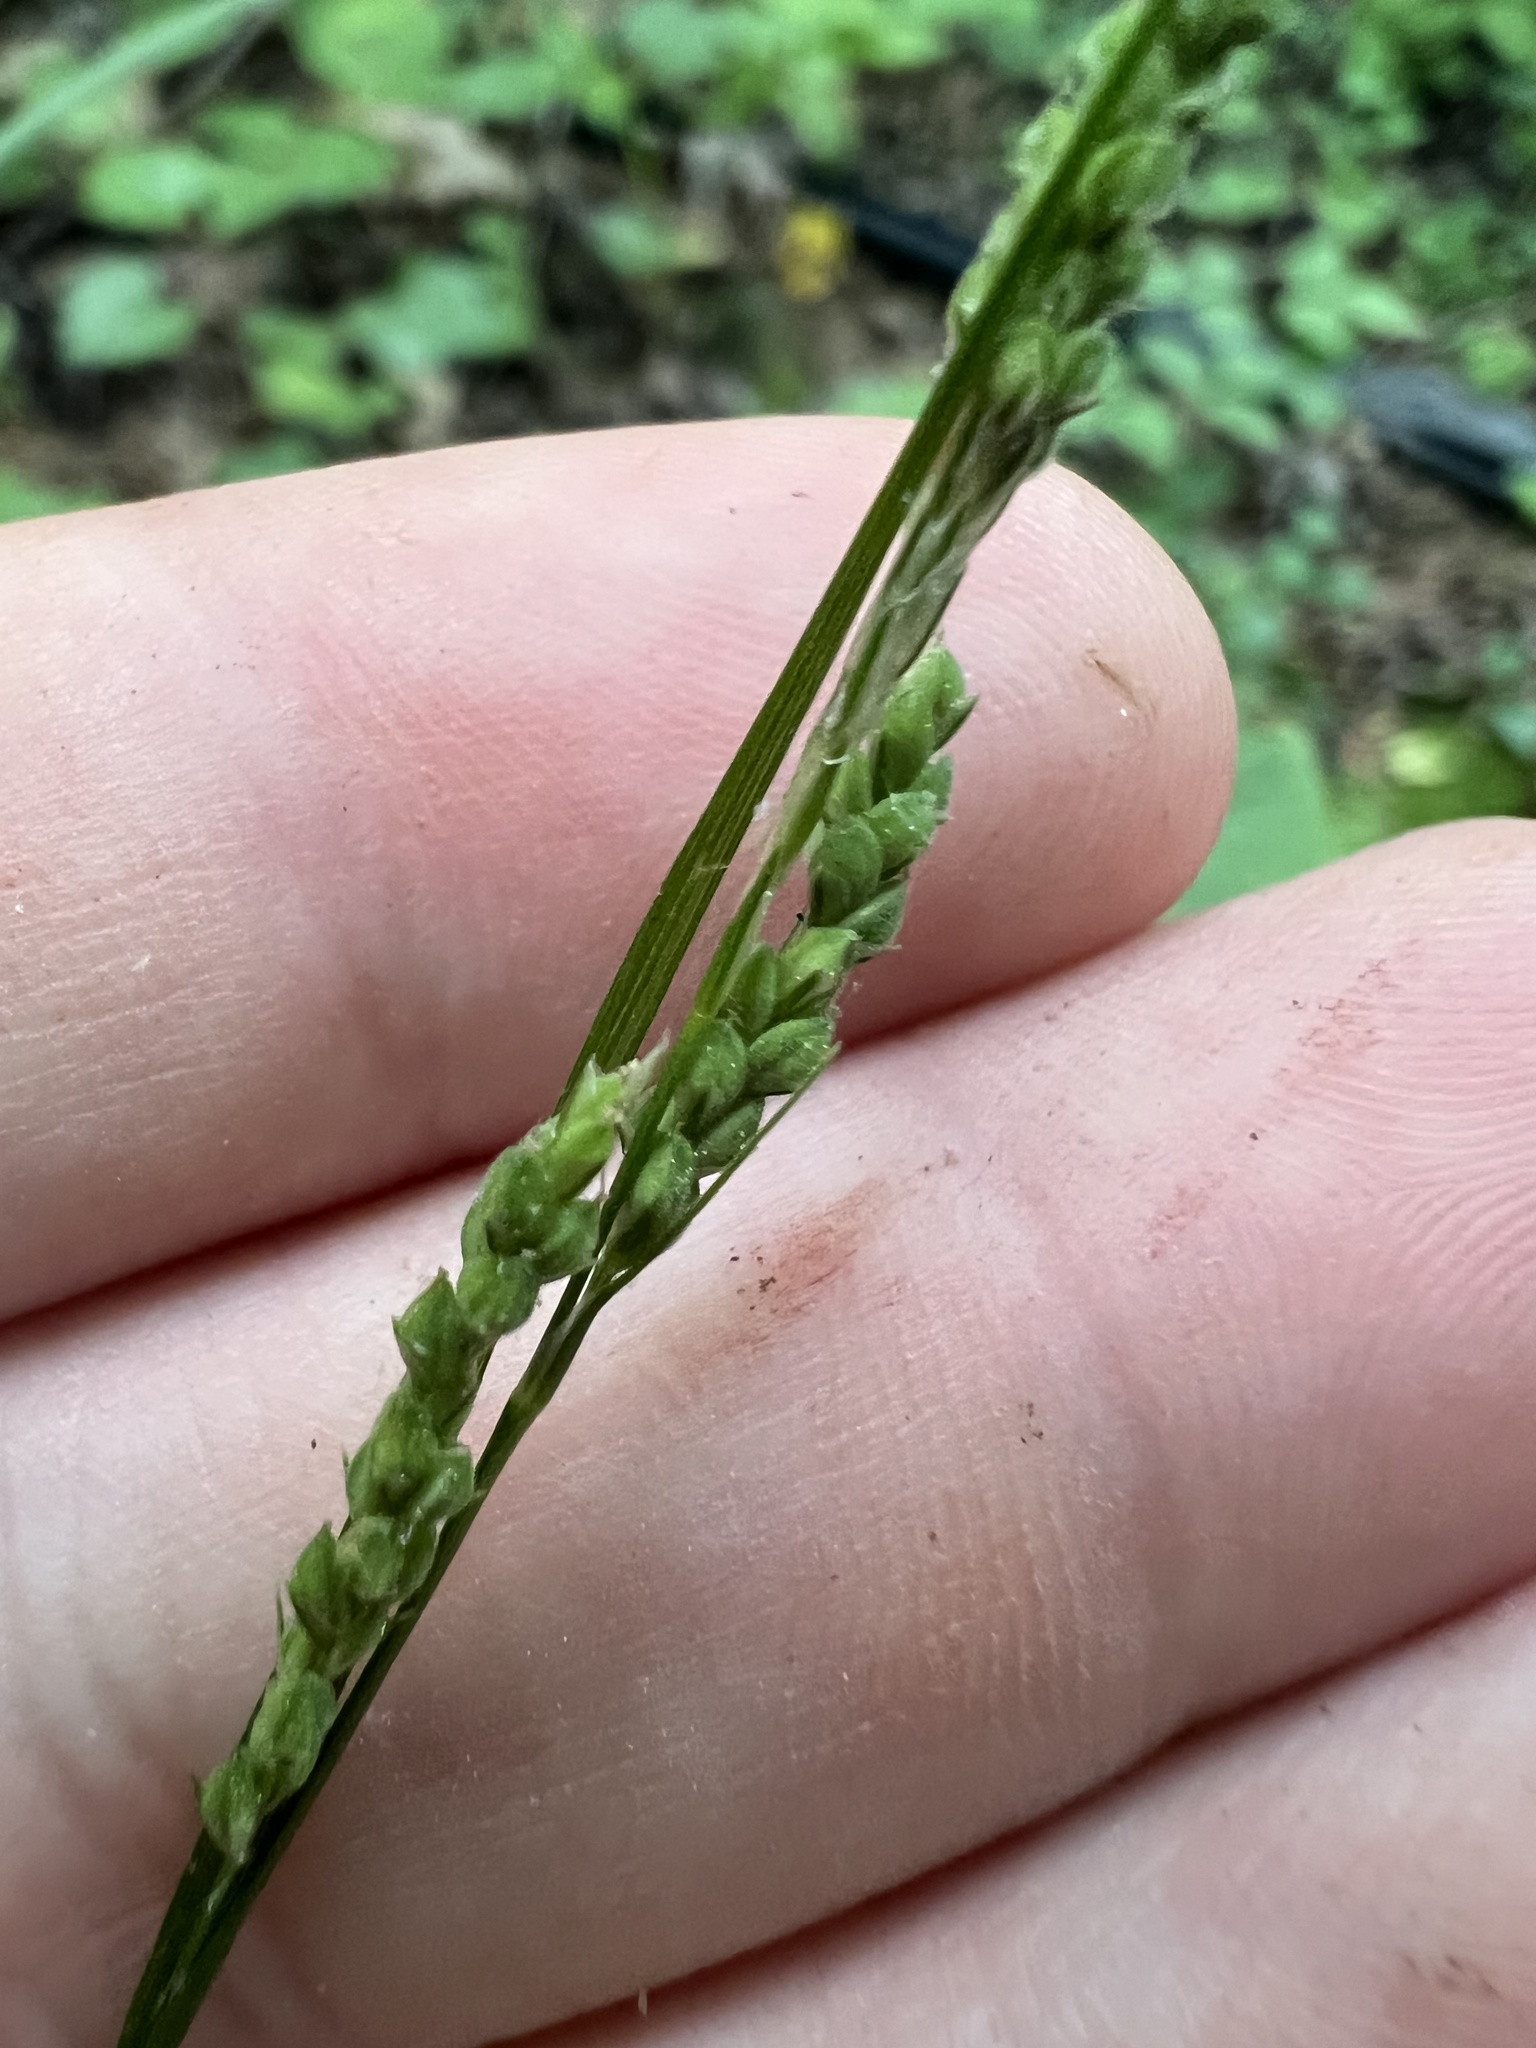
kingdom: Plantae
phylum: Tracheophyta
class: Liliopsida
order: Poales
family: Cyperaceae
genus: Carex
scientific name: Carex virescens
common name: Ribbed sedge
